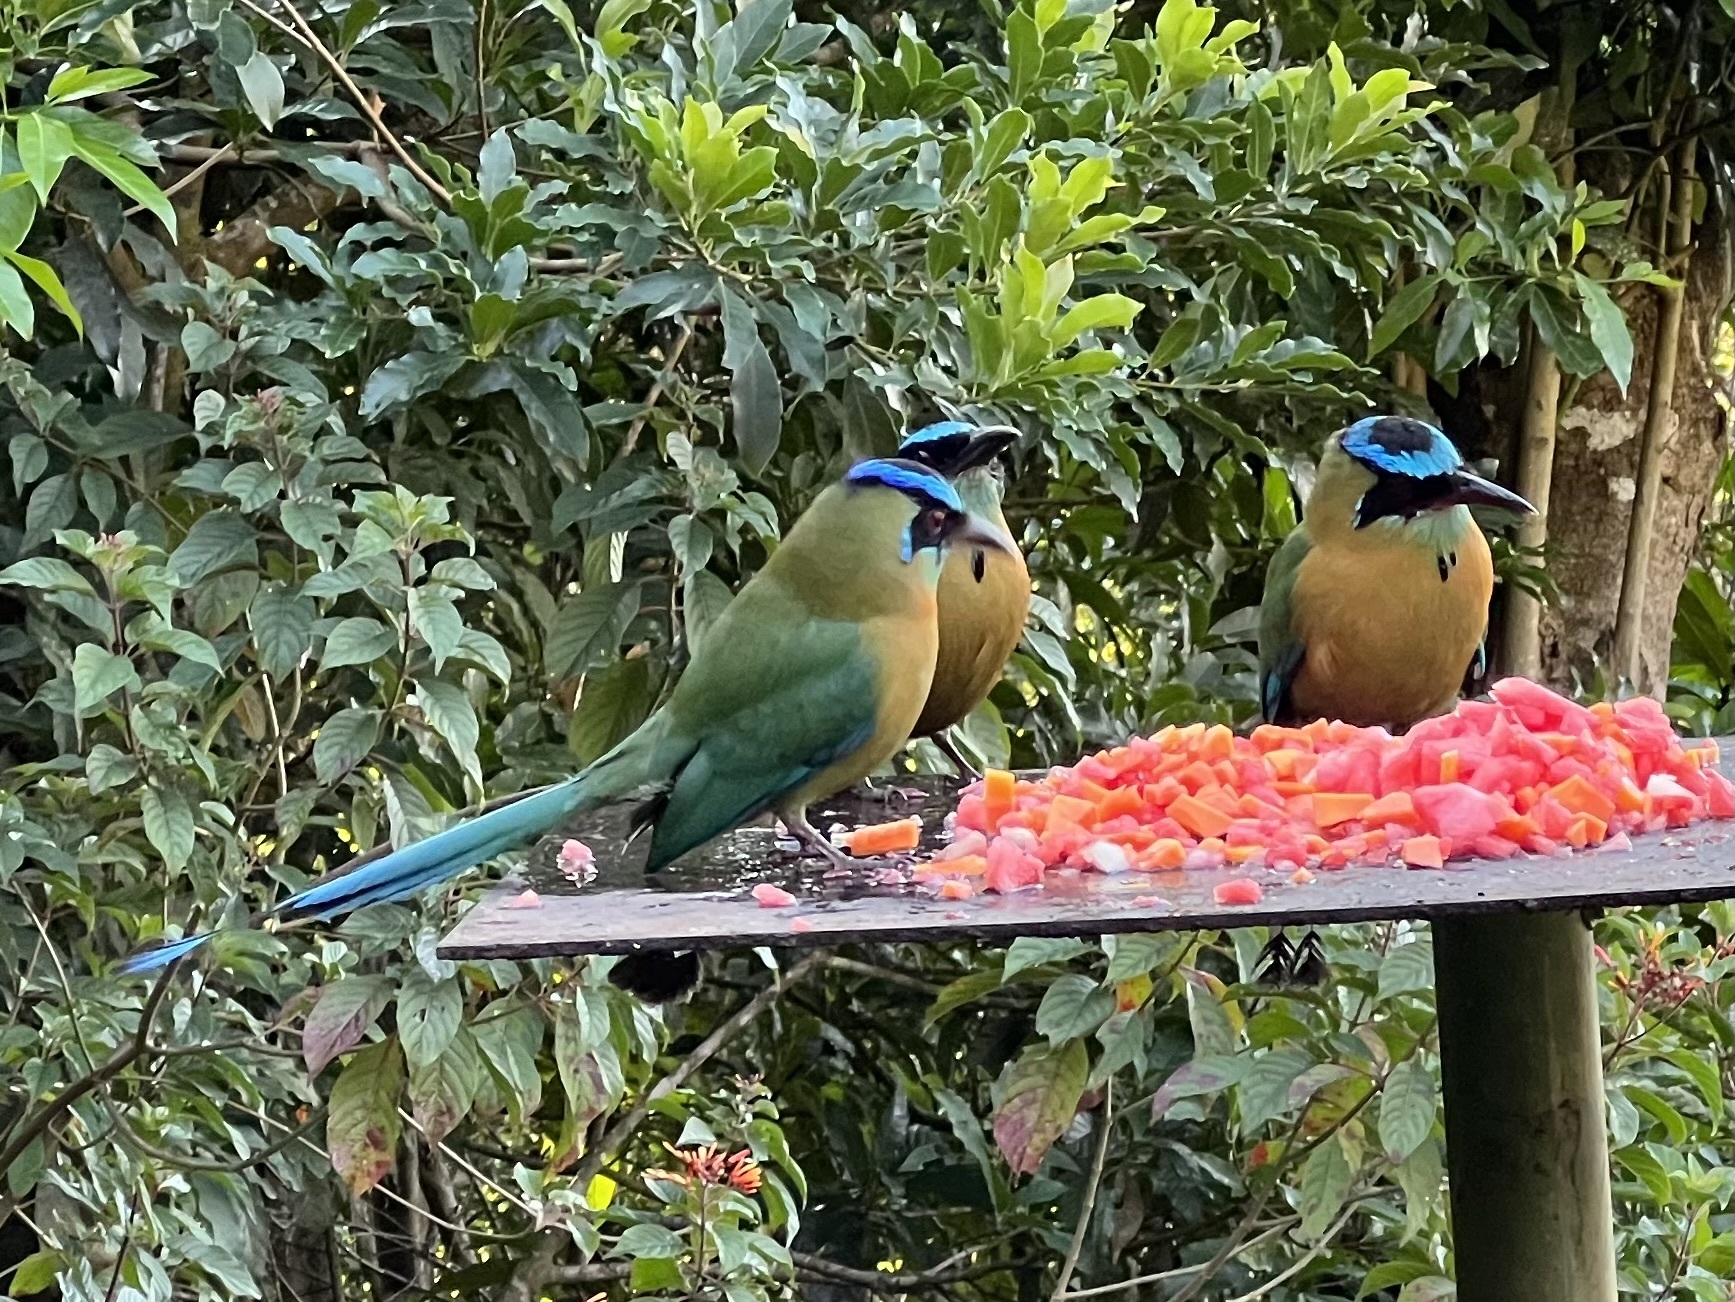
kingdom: Animalia
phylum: Chordata
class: Aves
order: Coraciiformes
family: Momotidae
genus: Momotus
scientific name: Momotus lessonii
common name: Lesson's motmot
